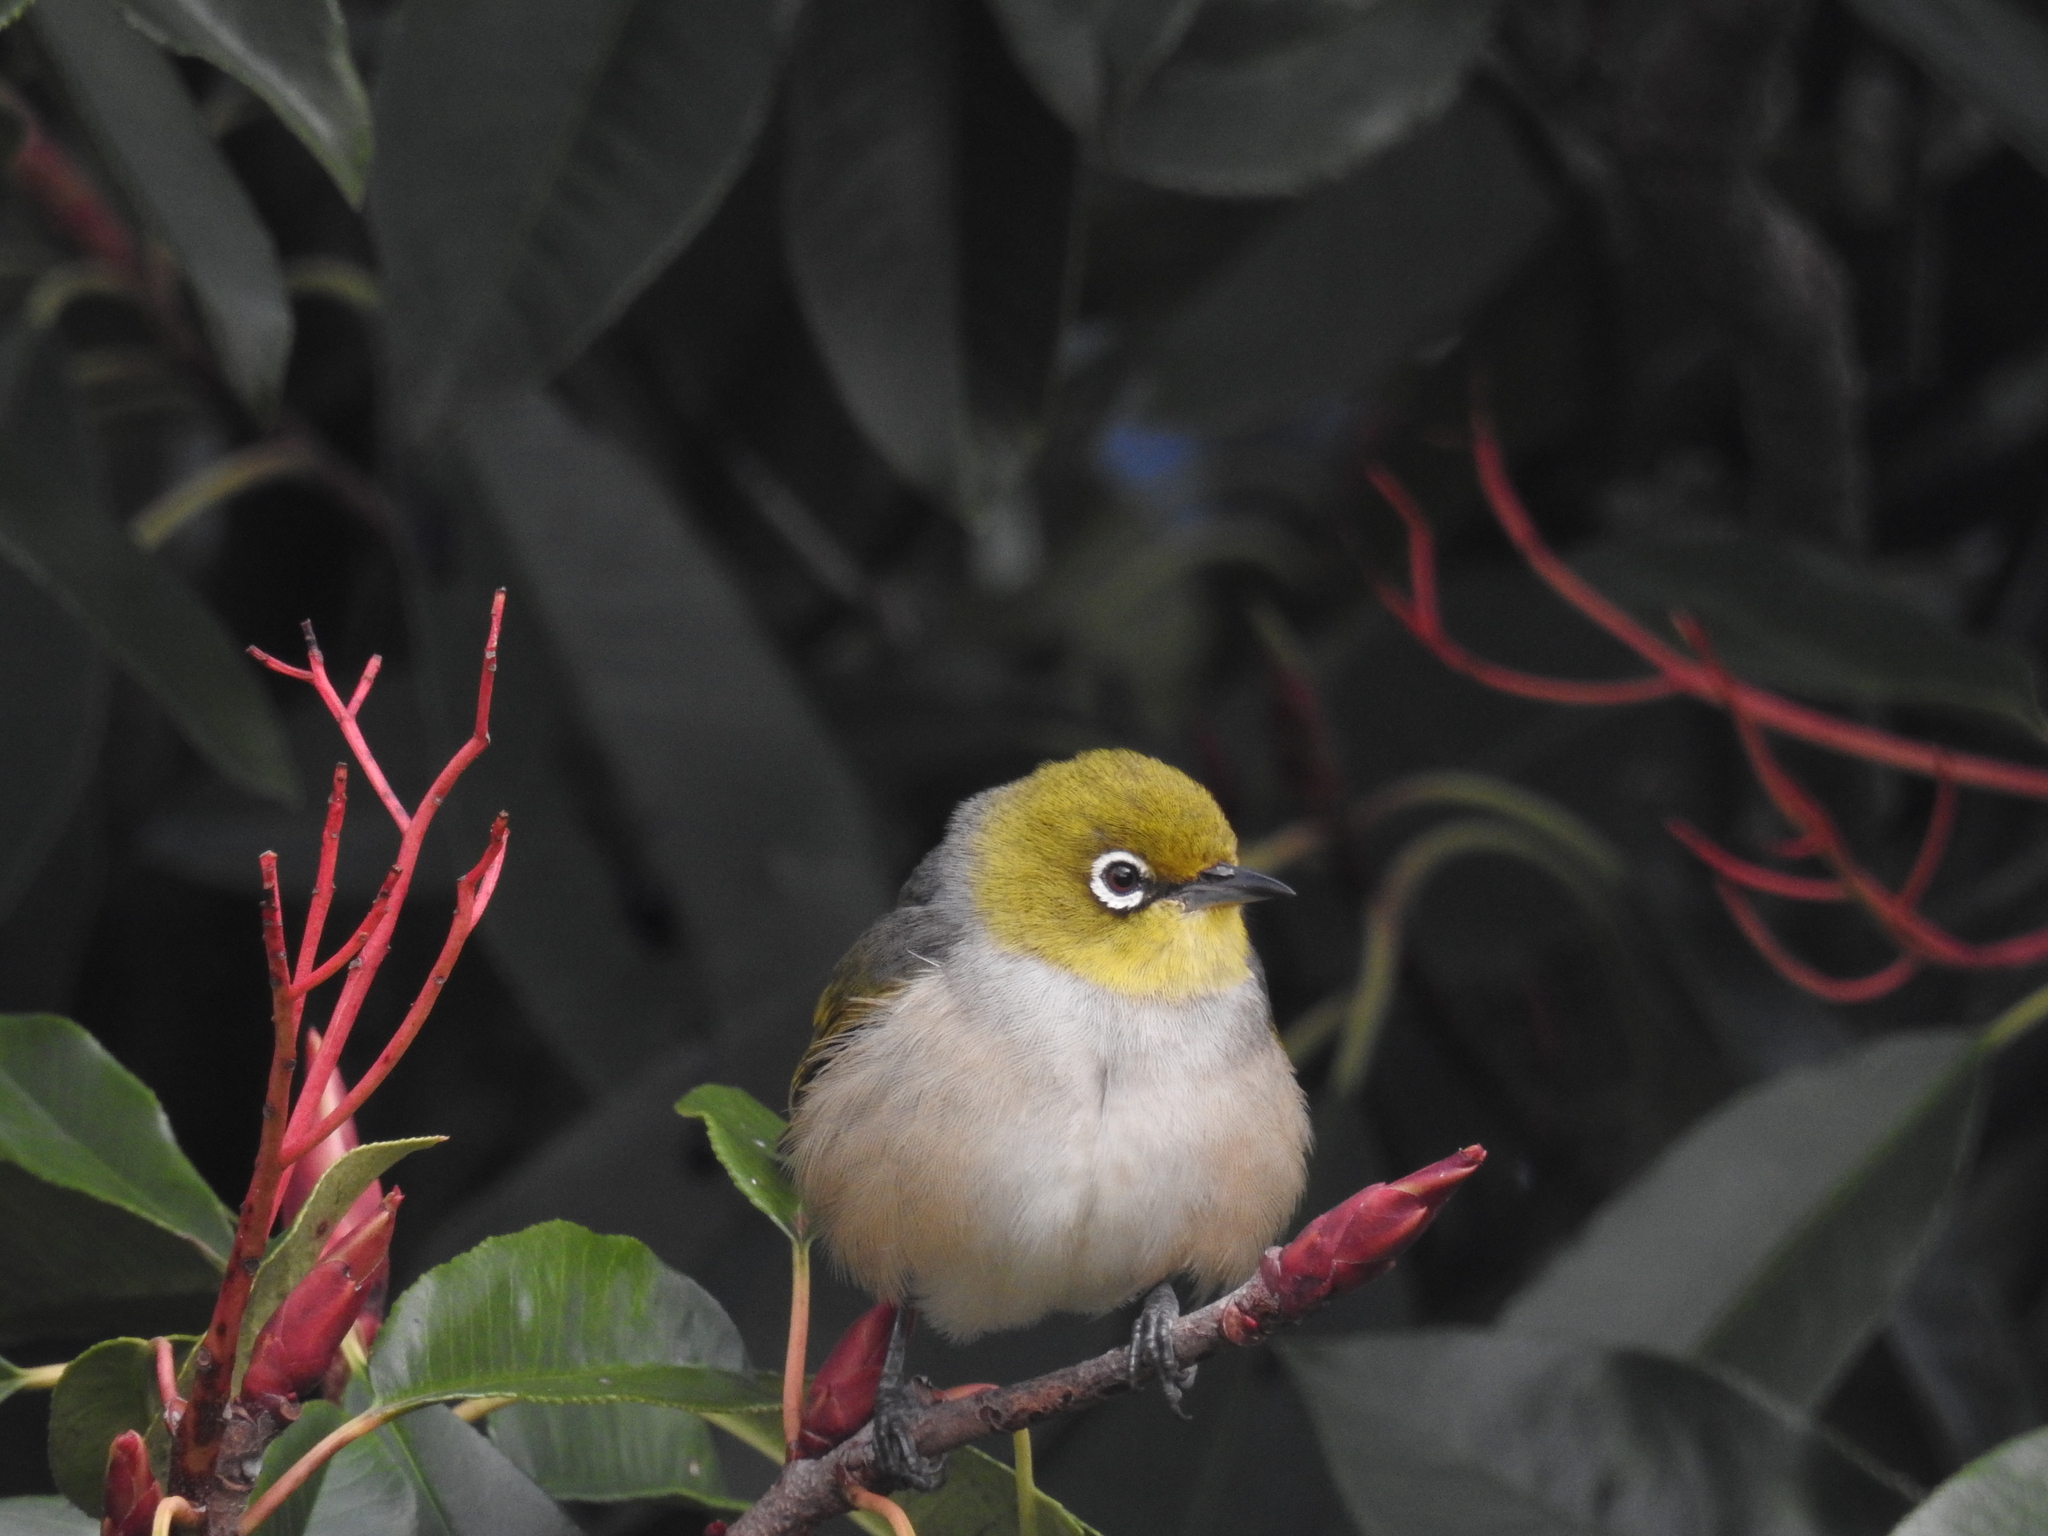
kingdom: Animalia
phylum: Chordata
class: Aves
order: Passeriformes
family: Zosteropidae
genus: Zosterops
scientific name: Zosterops lateralis
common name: Silvereye
